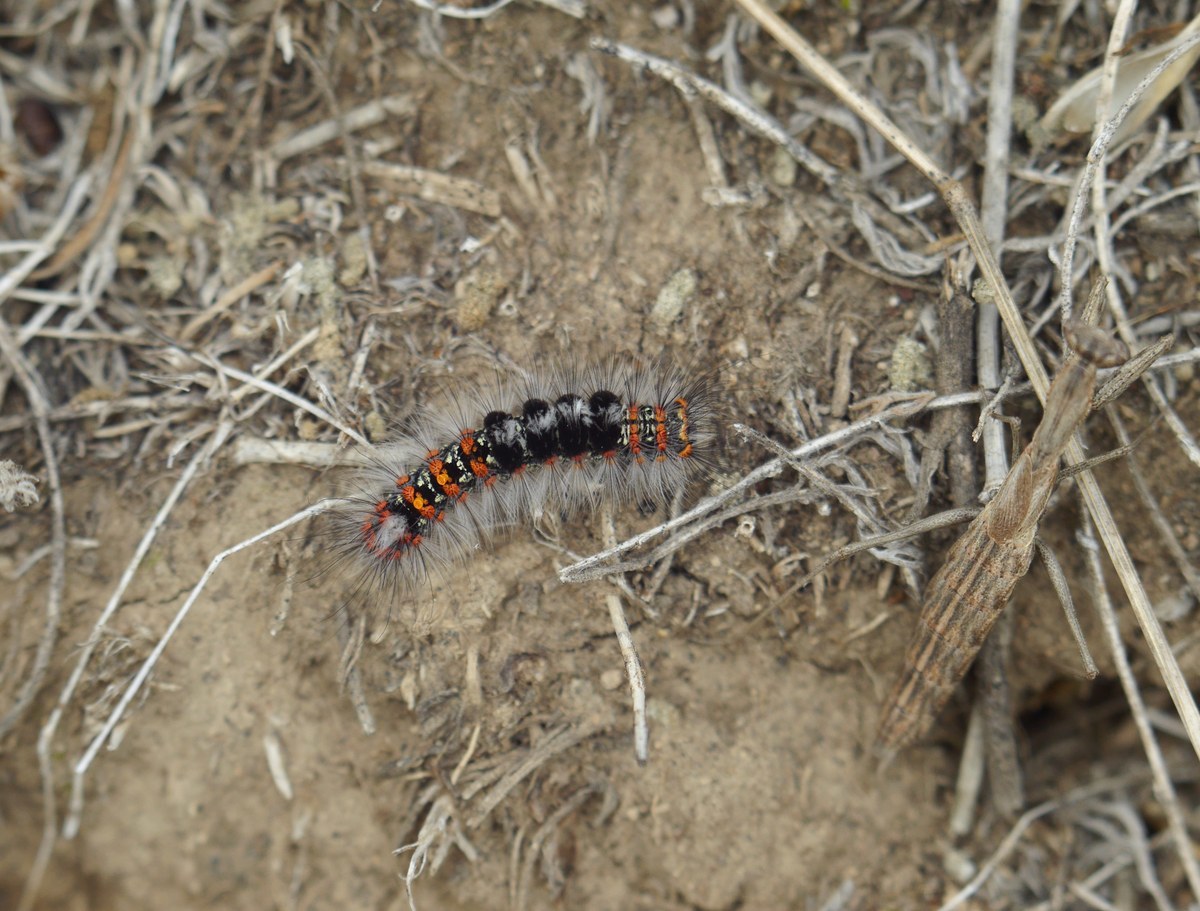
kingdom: Animalia
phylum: Arthropoda
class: Insecta
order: Mantodea
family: Amelidae
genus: Ameles
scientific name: Ameles heldreichi
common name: Heldreich's dwarf mantis
